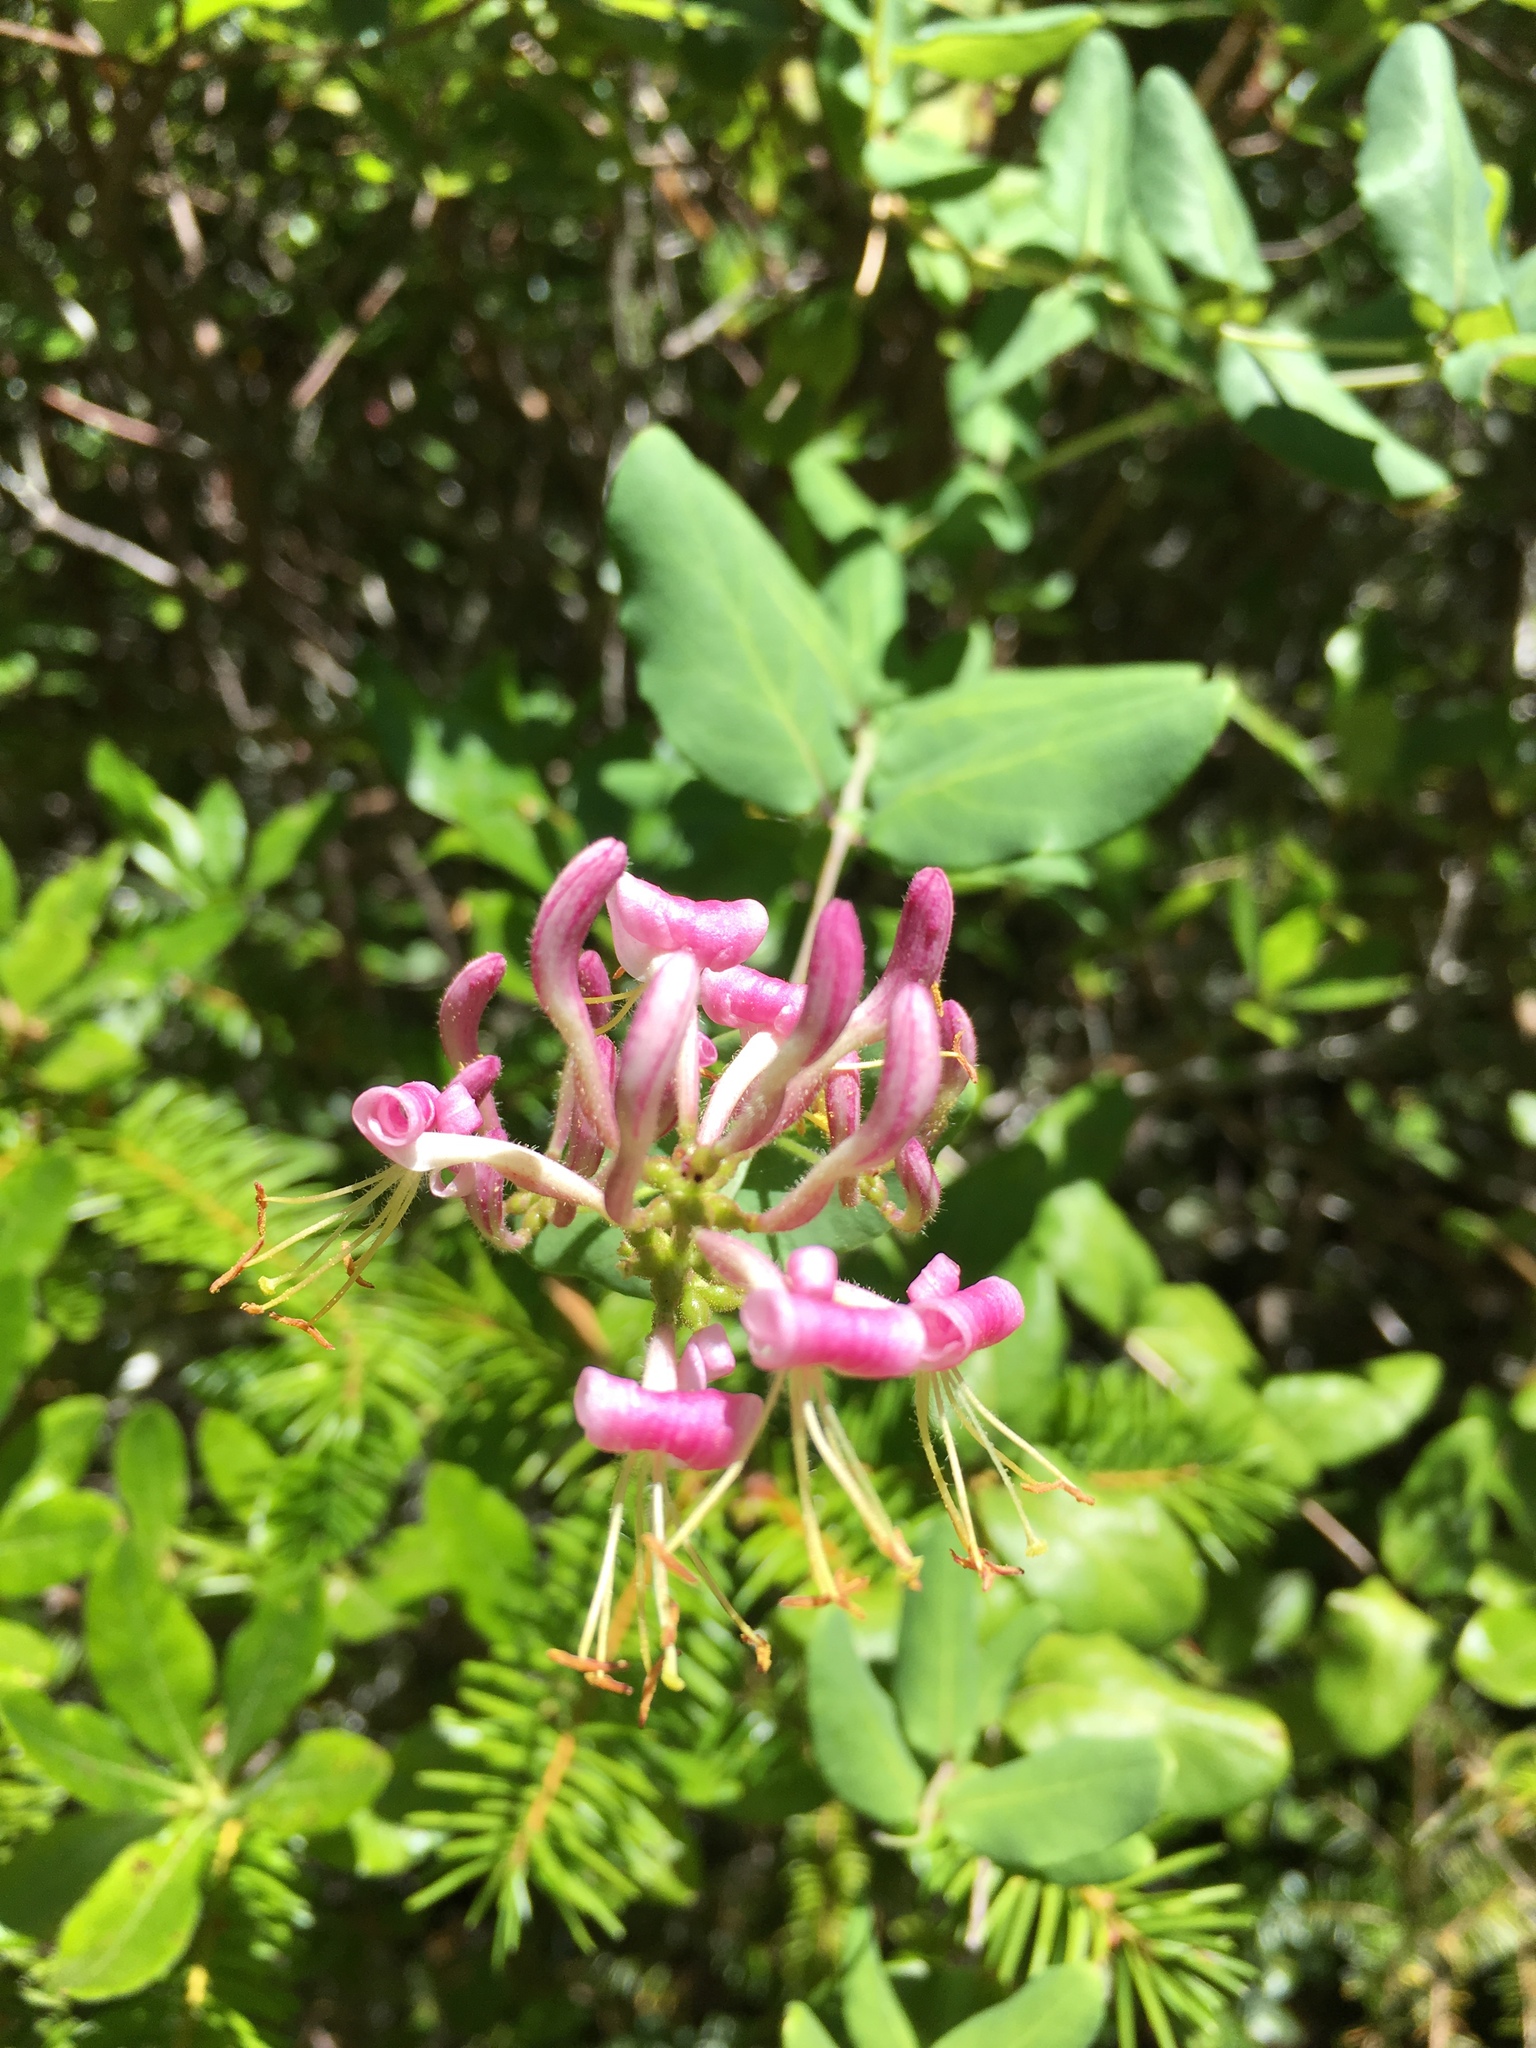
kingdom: Plantae
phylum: Tracheophyta
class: Magnoliopsida
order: Dipsacales
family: Caprifoliaceae
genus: Lonicera
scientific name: Lonicera hispidula
